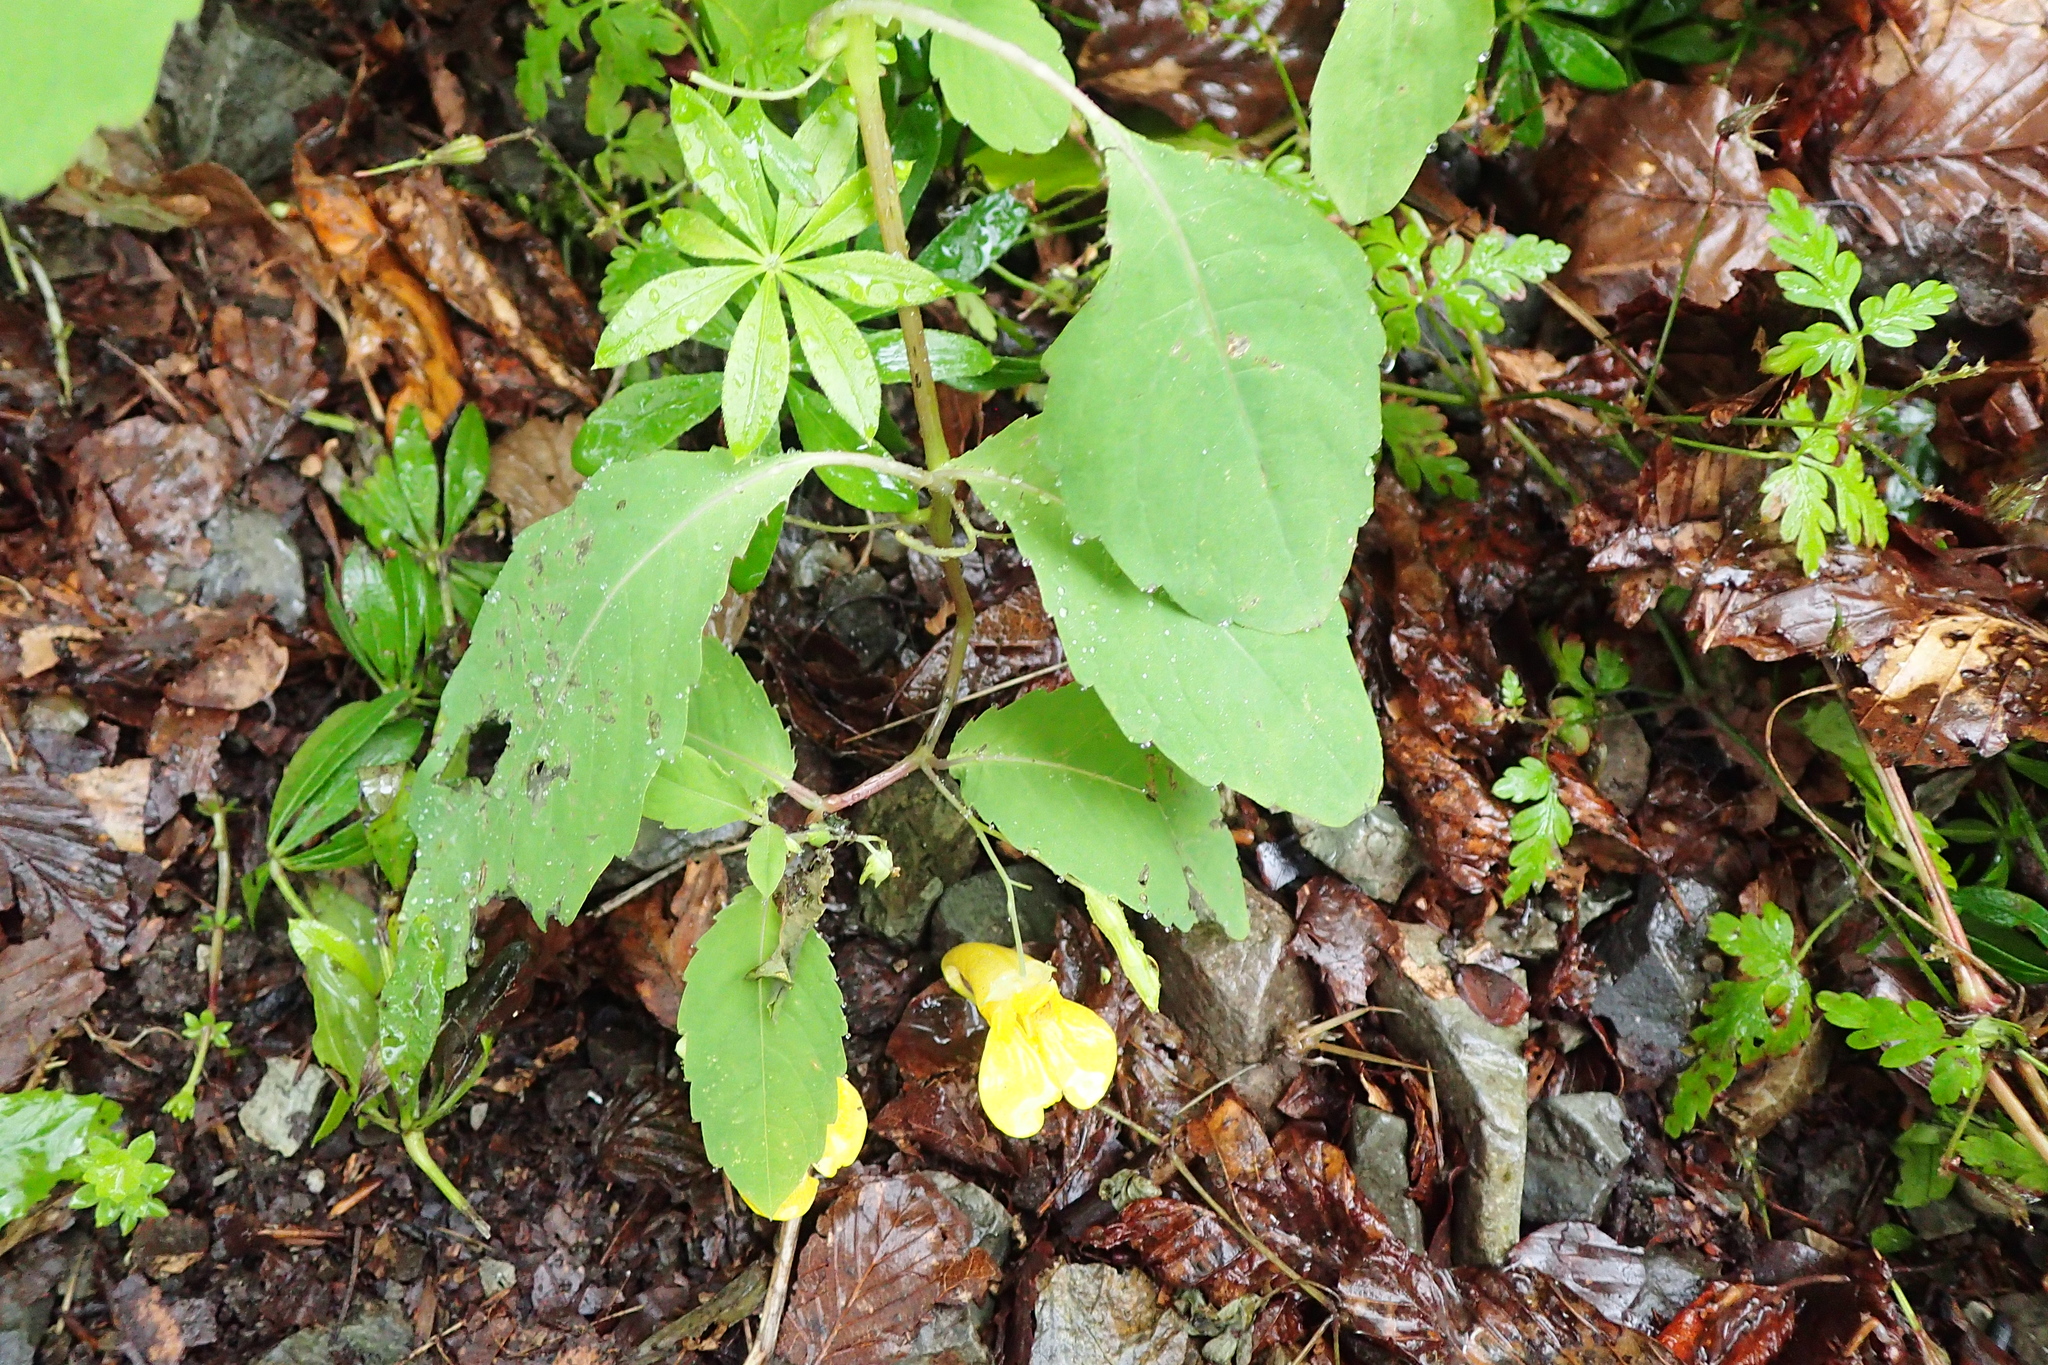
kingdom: Plantae
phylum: Tracheophyta
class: Magnoliopsida
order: Ericales
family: Balsaminaceae
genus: Impatiens
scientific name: Impatiens noli-tangere
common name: Touch-me-not balsam
